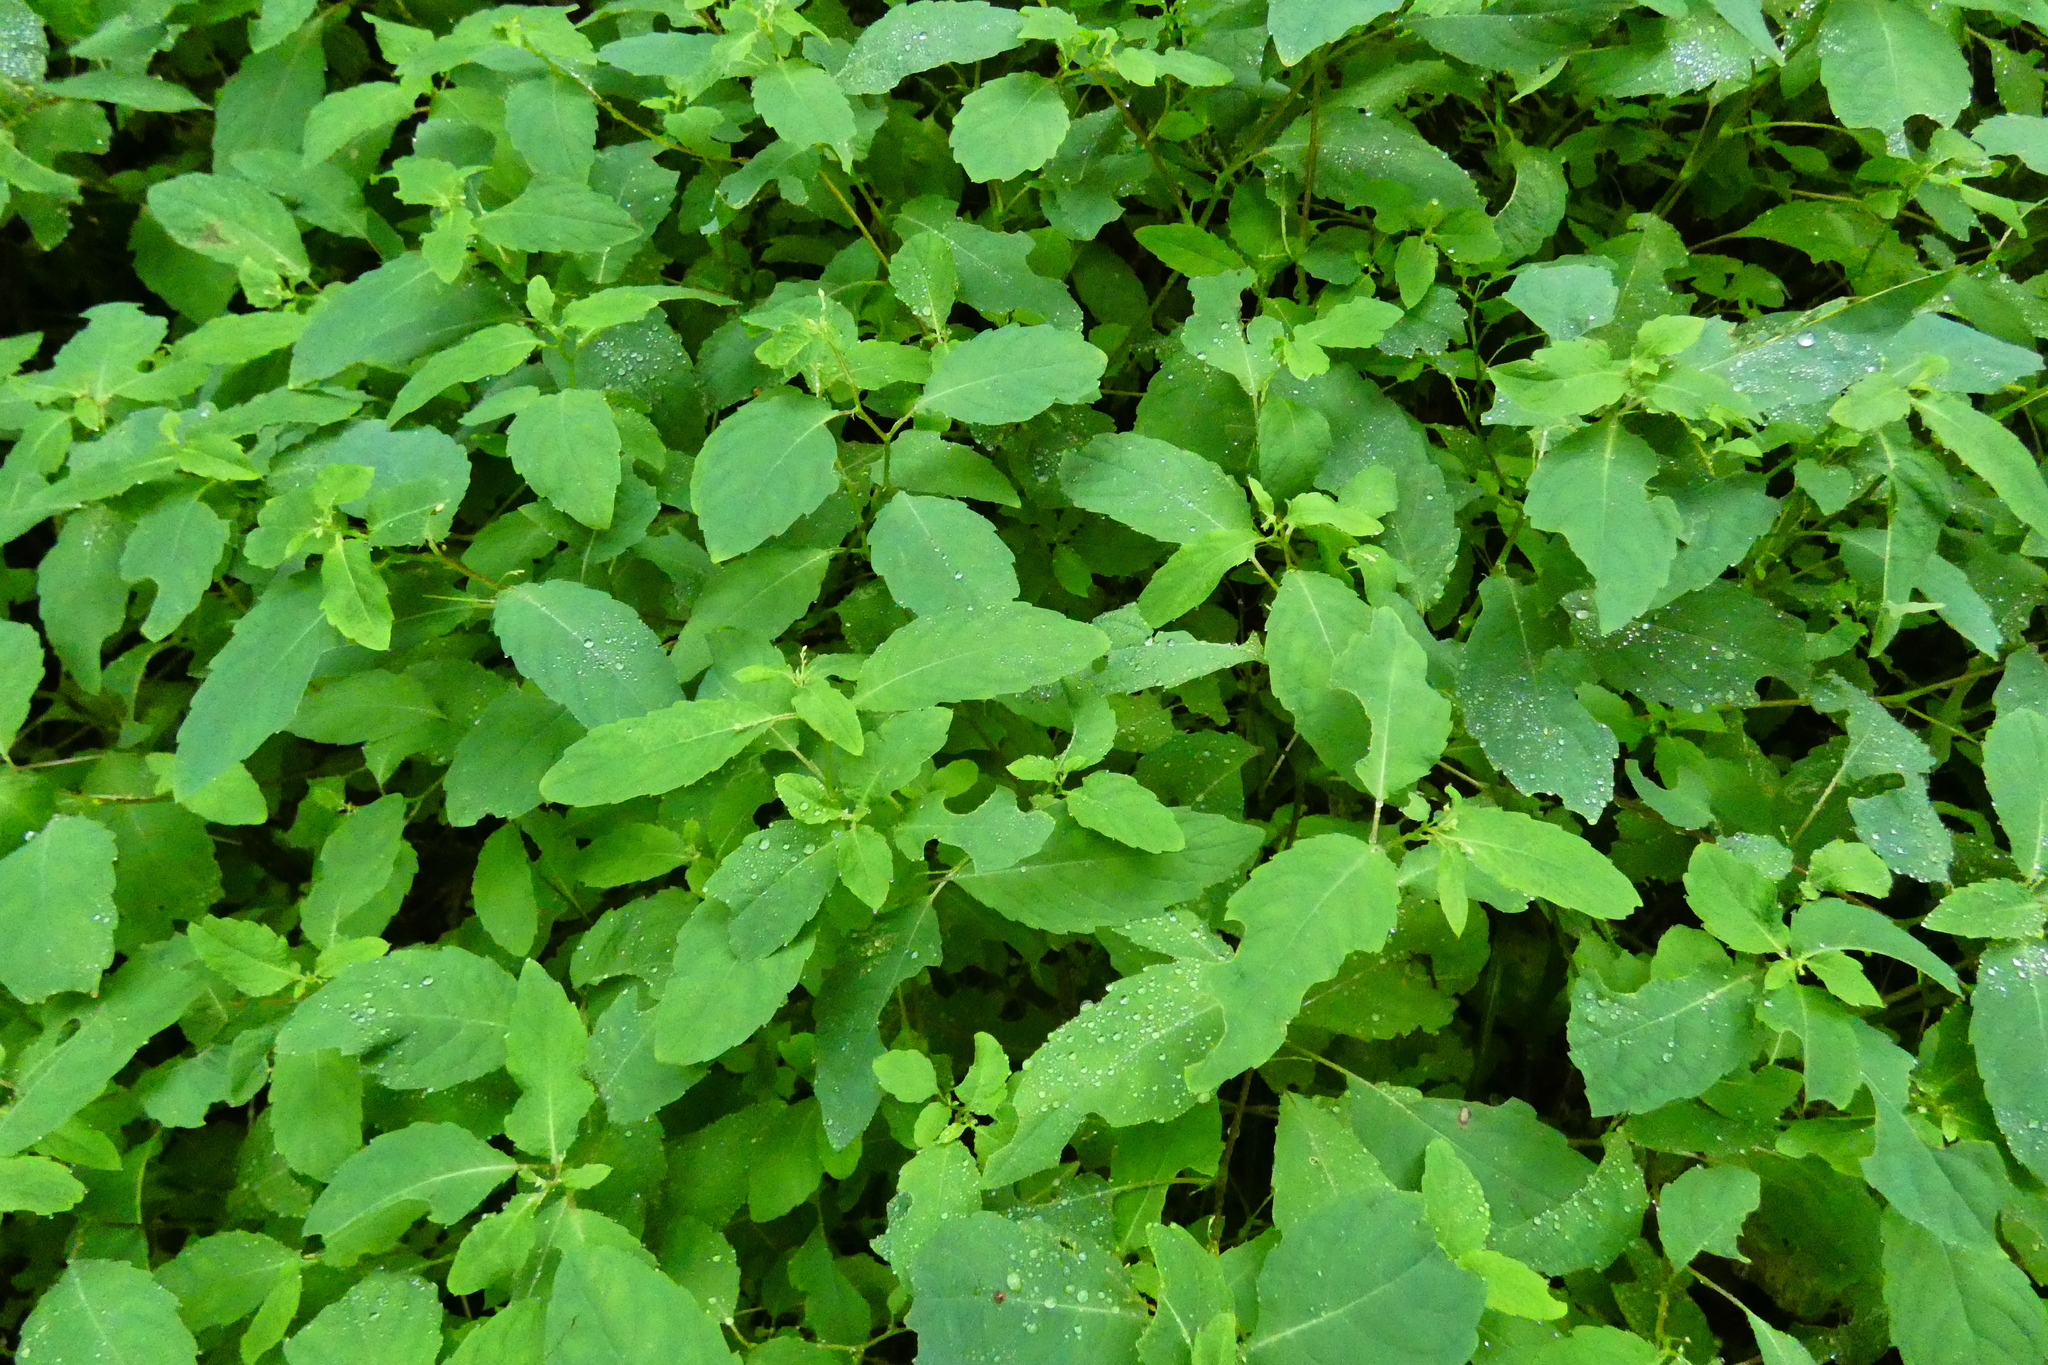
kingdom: Plantae
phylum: Tracheophyta
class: Magnoliopsida
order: Ericales
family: Balsaminaceae
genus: Impatiens
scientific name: Impatiens noli-tangere
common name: Touch-me-not balsam
